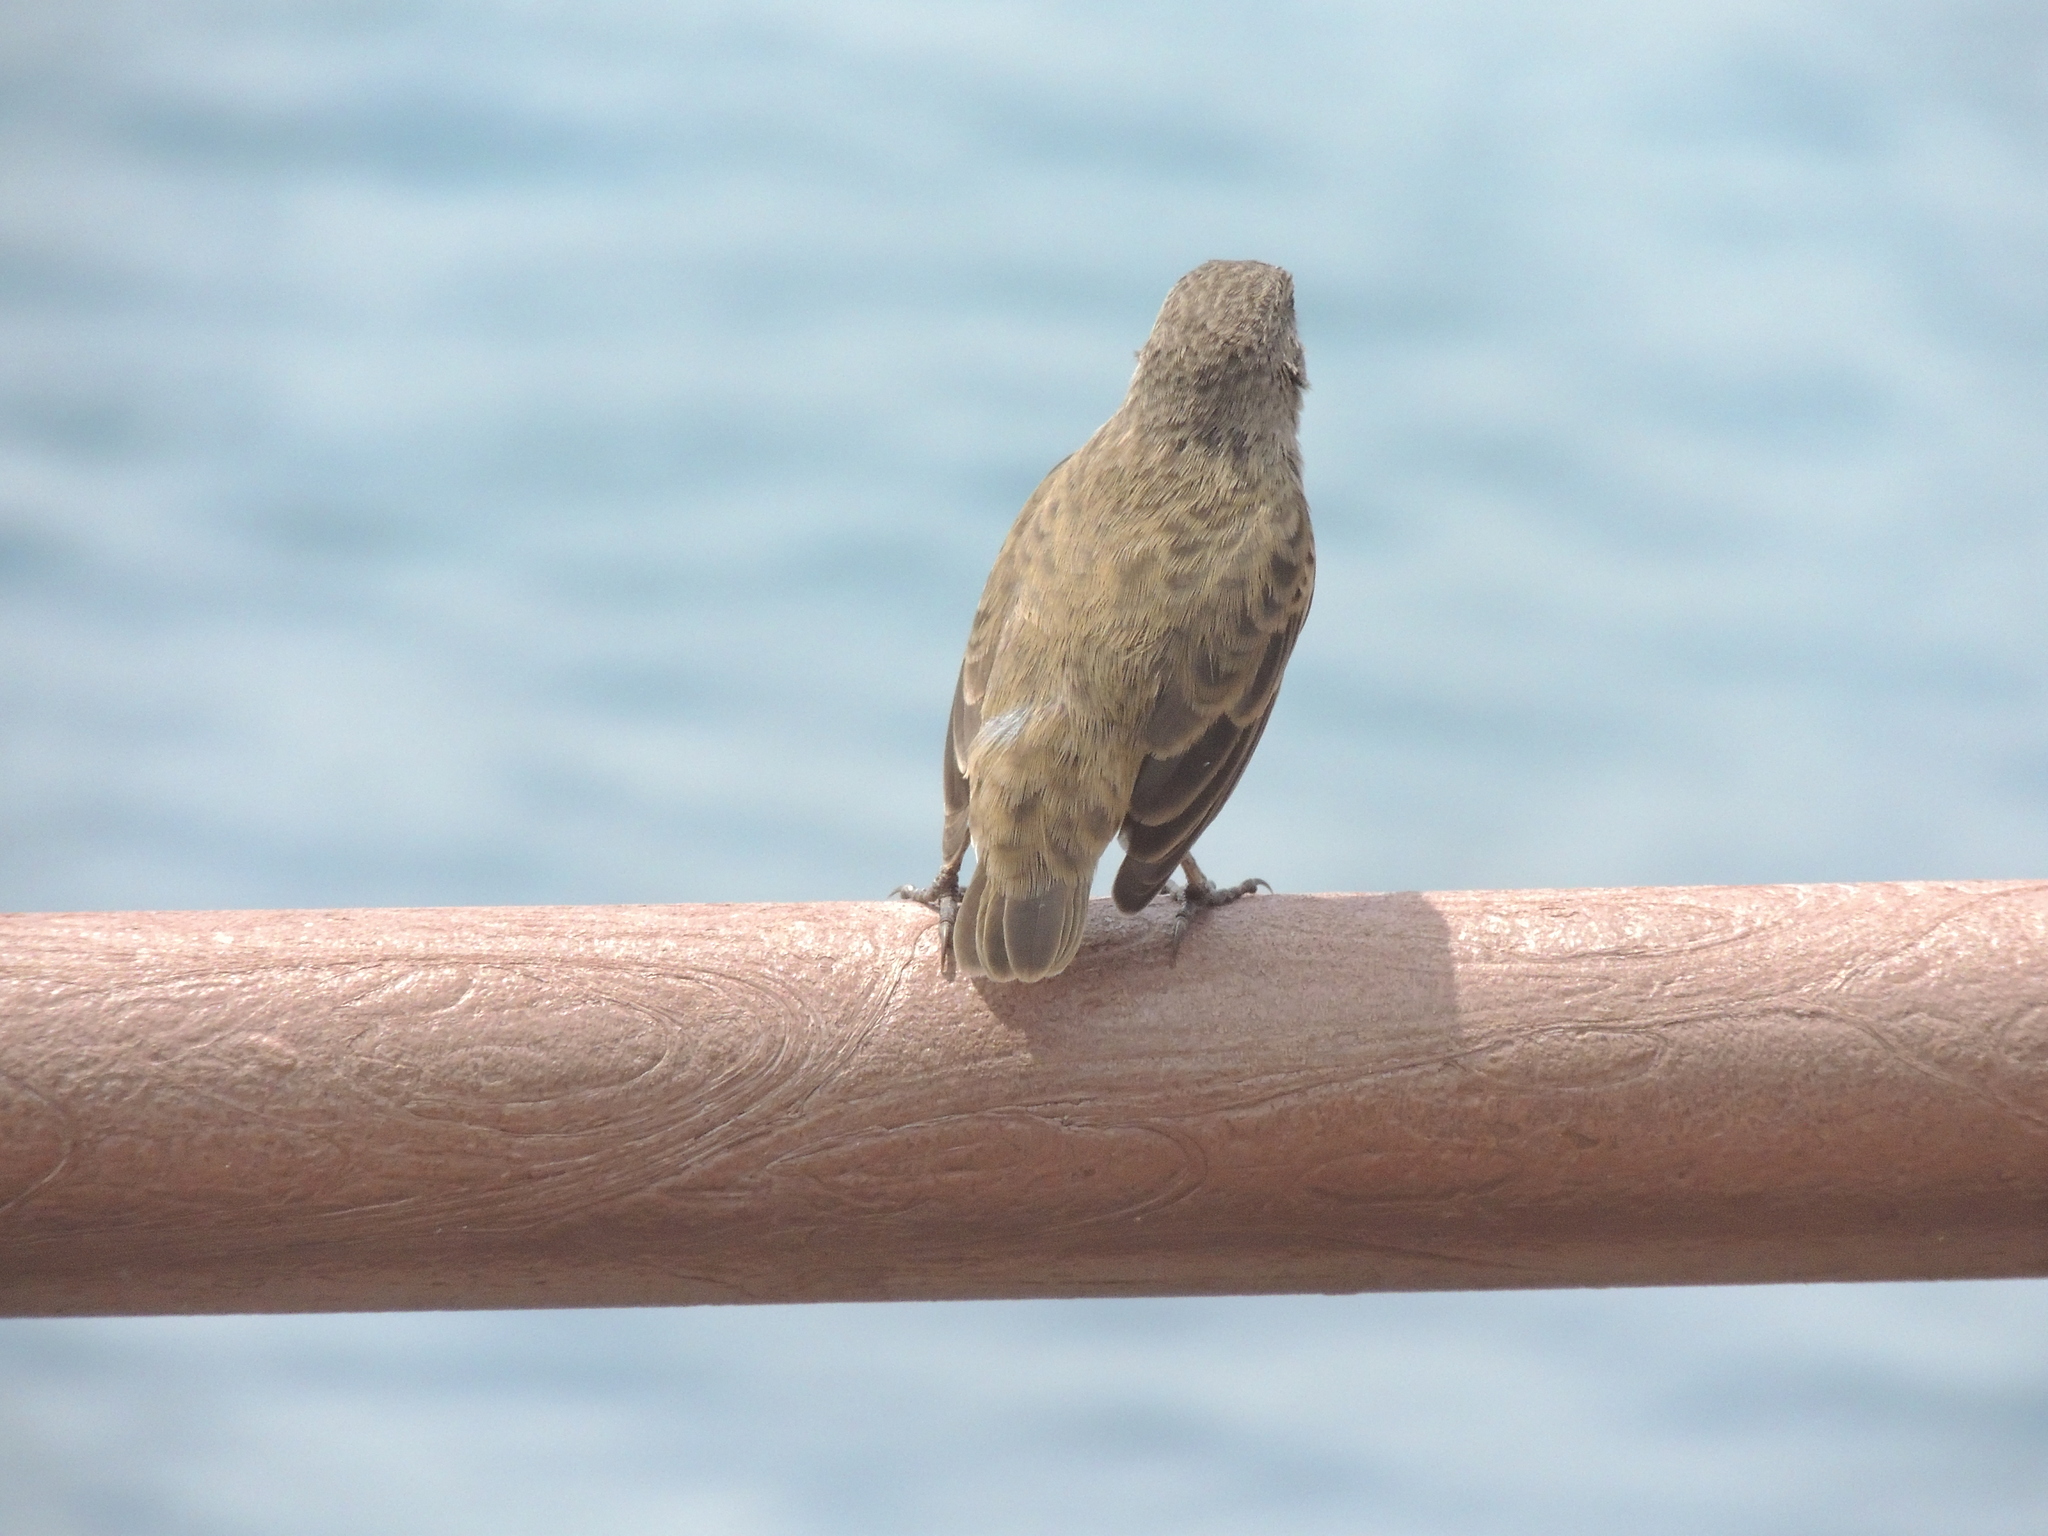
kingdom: Animalia
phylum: Chordata
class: Aves
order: Passeriformes
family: Thraupidae
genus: Geospiza
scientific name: Geospiza fuliginosa
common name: Small ground finch
